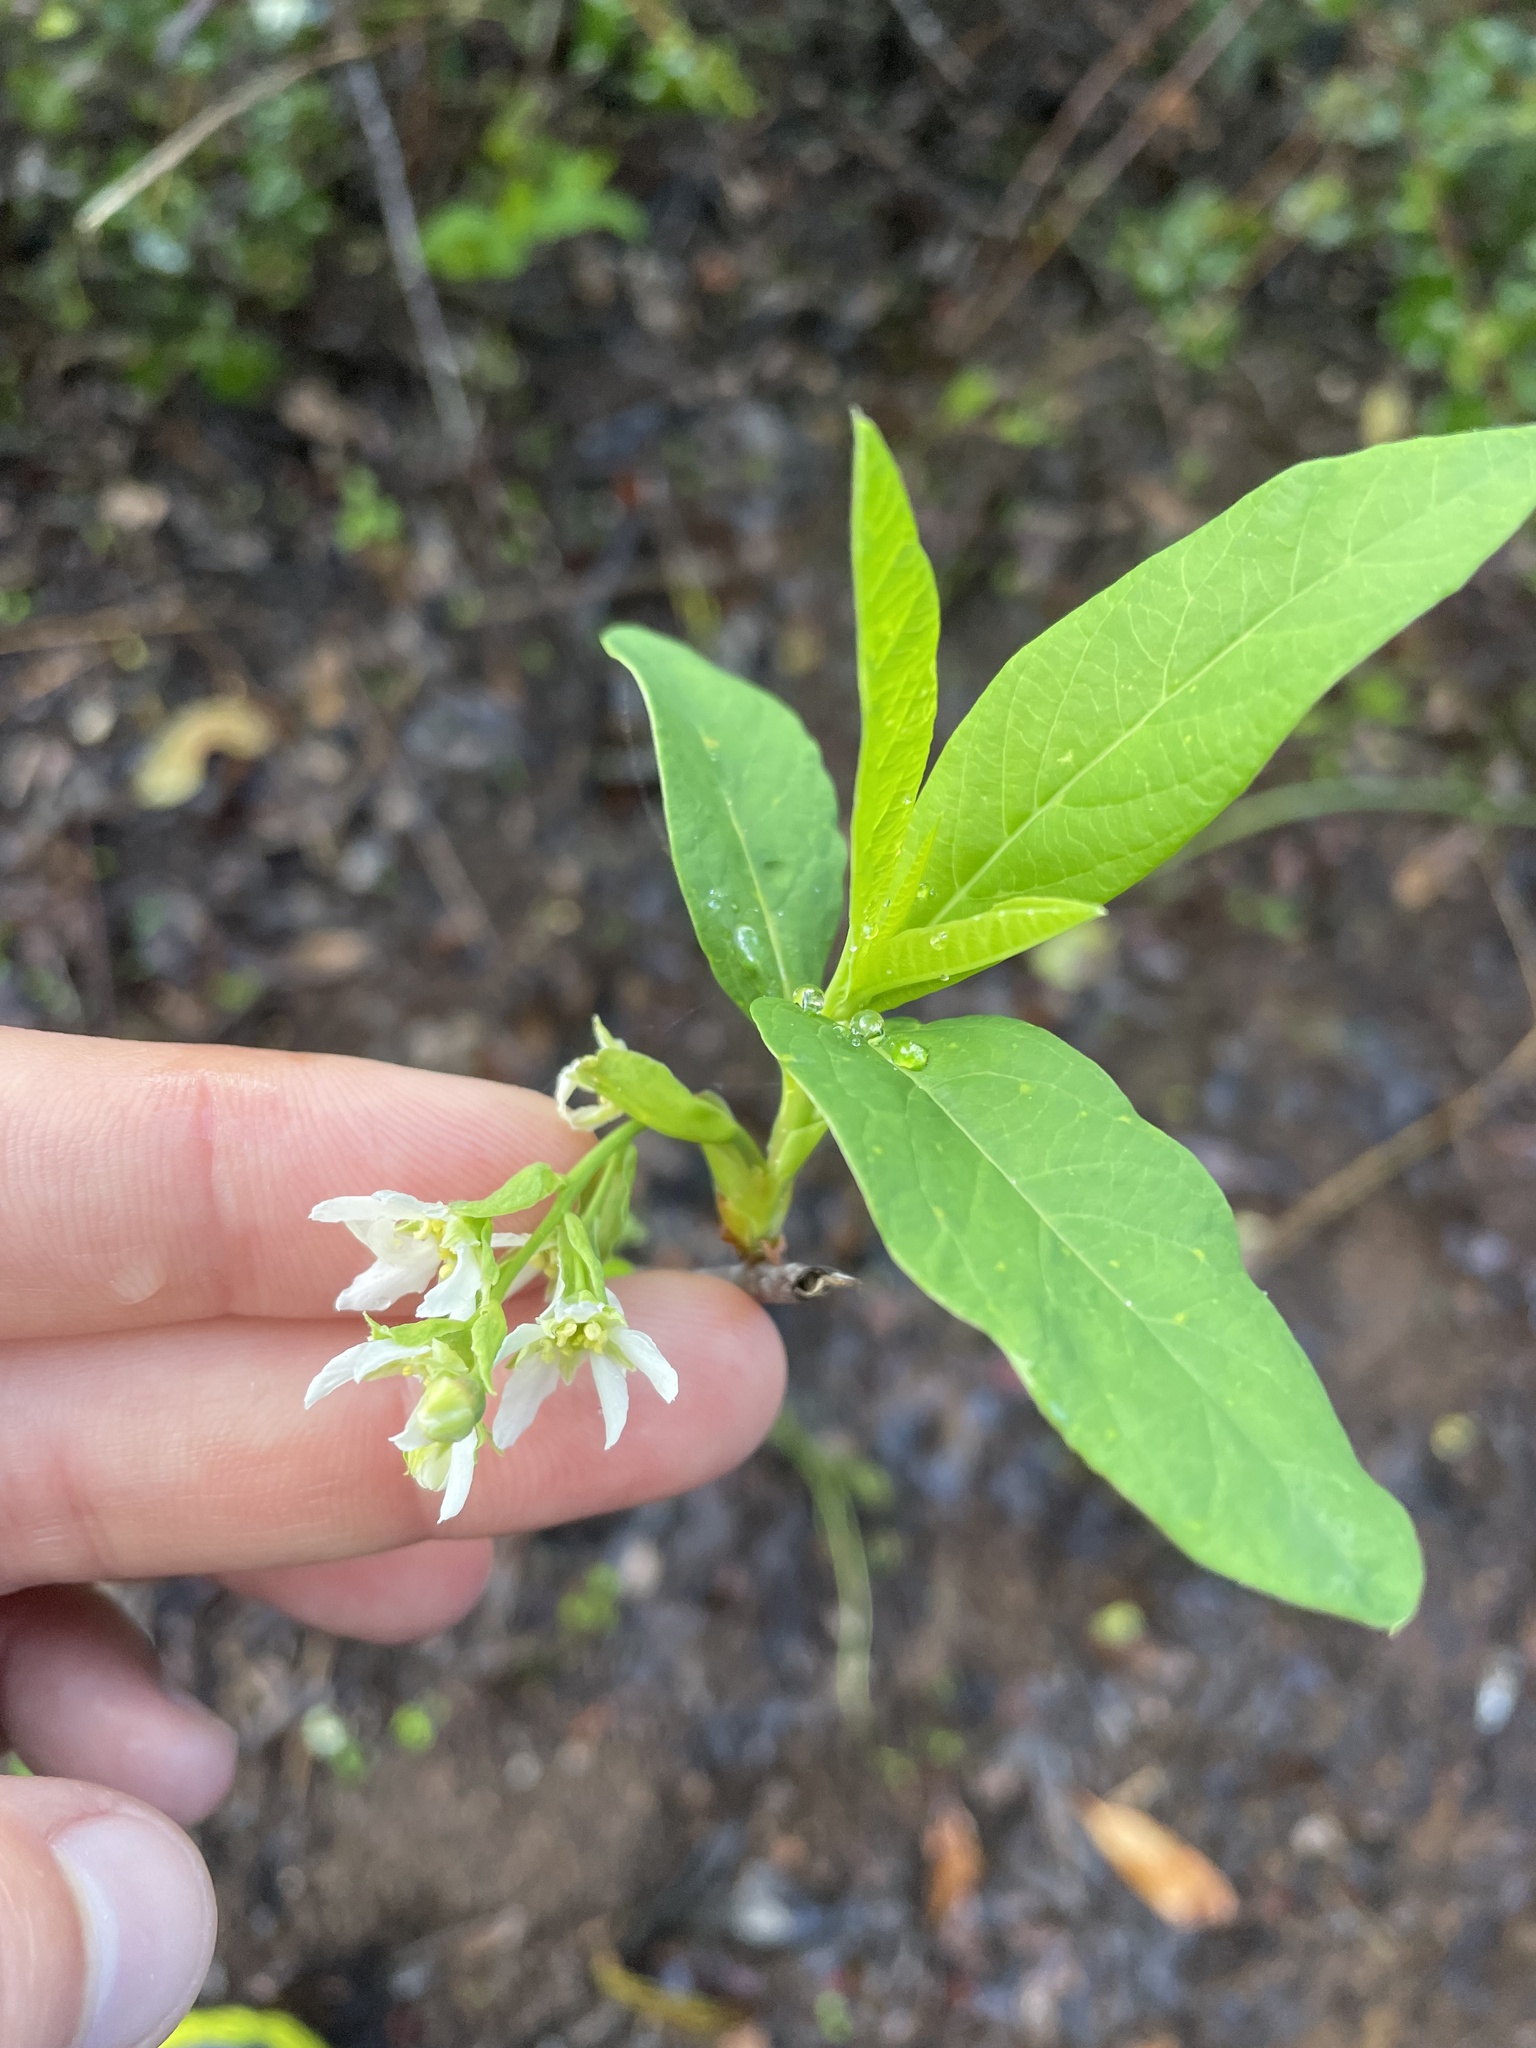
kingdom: Plantae
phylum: Tracheophyta
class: Magnoliopsida
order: Rosales
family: Rosaceae
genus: Oemleria
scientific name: Oemleria cerasiformis
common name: Osoberry
